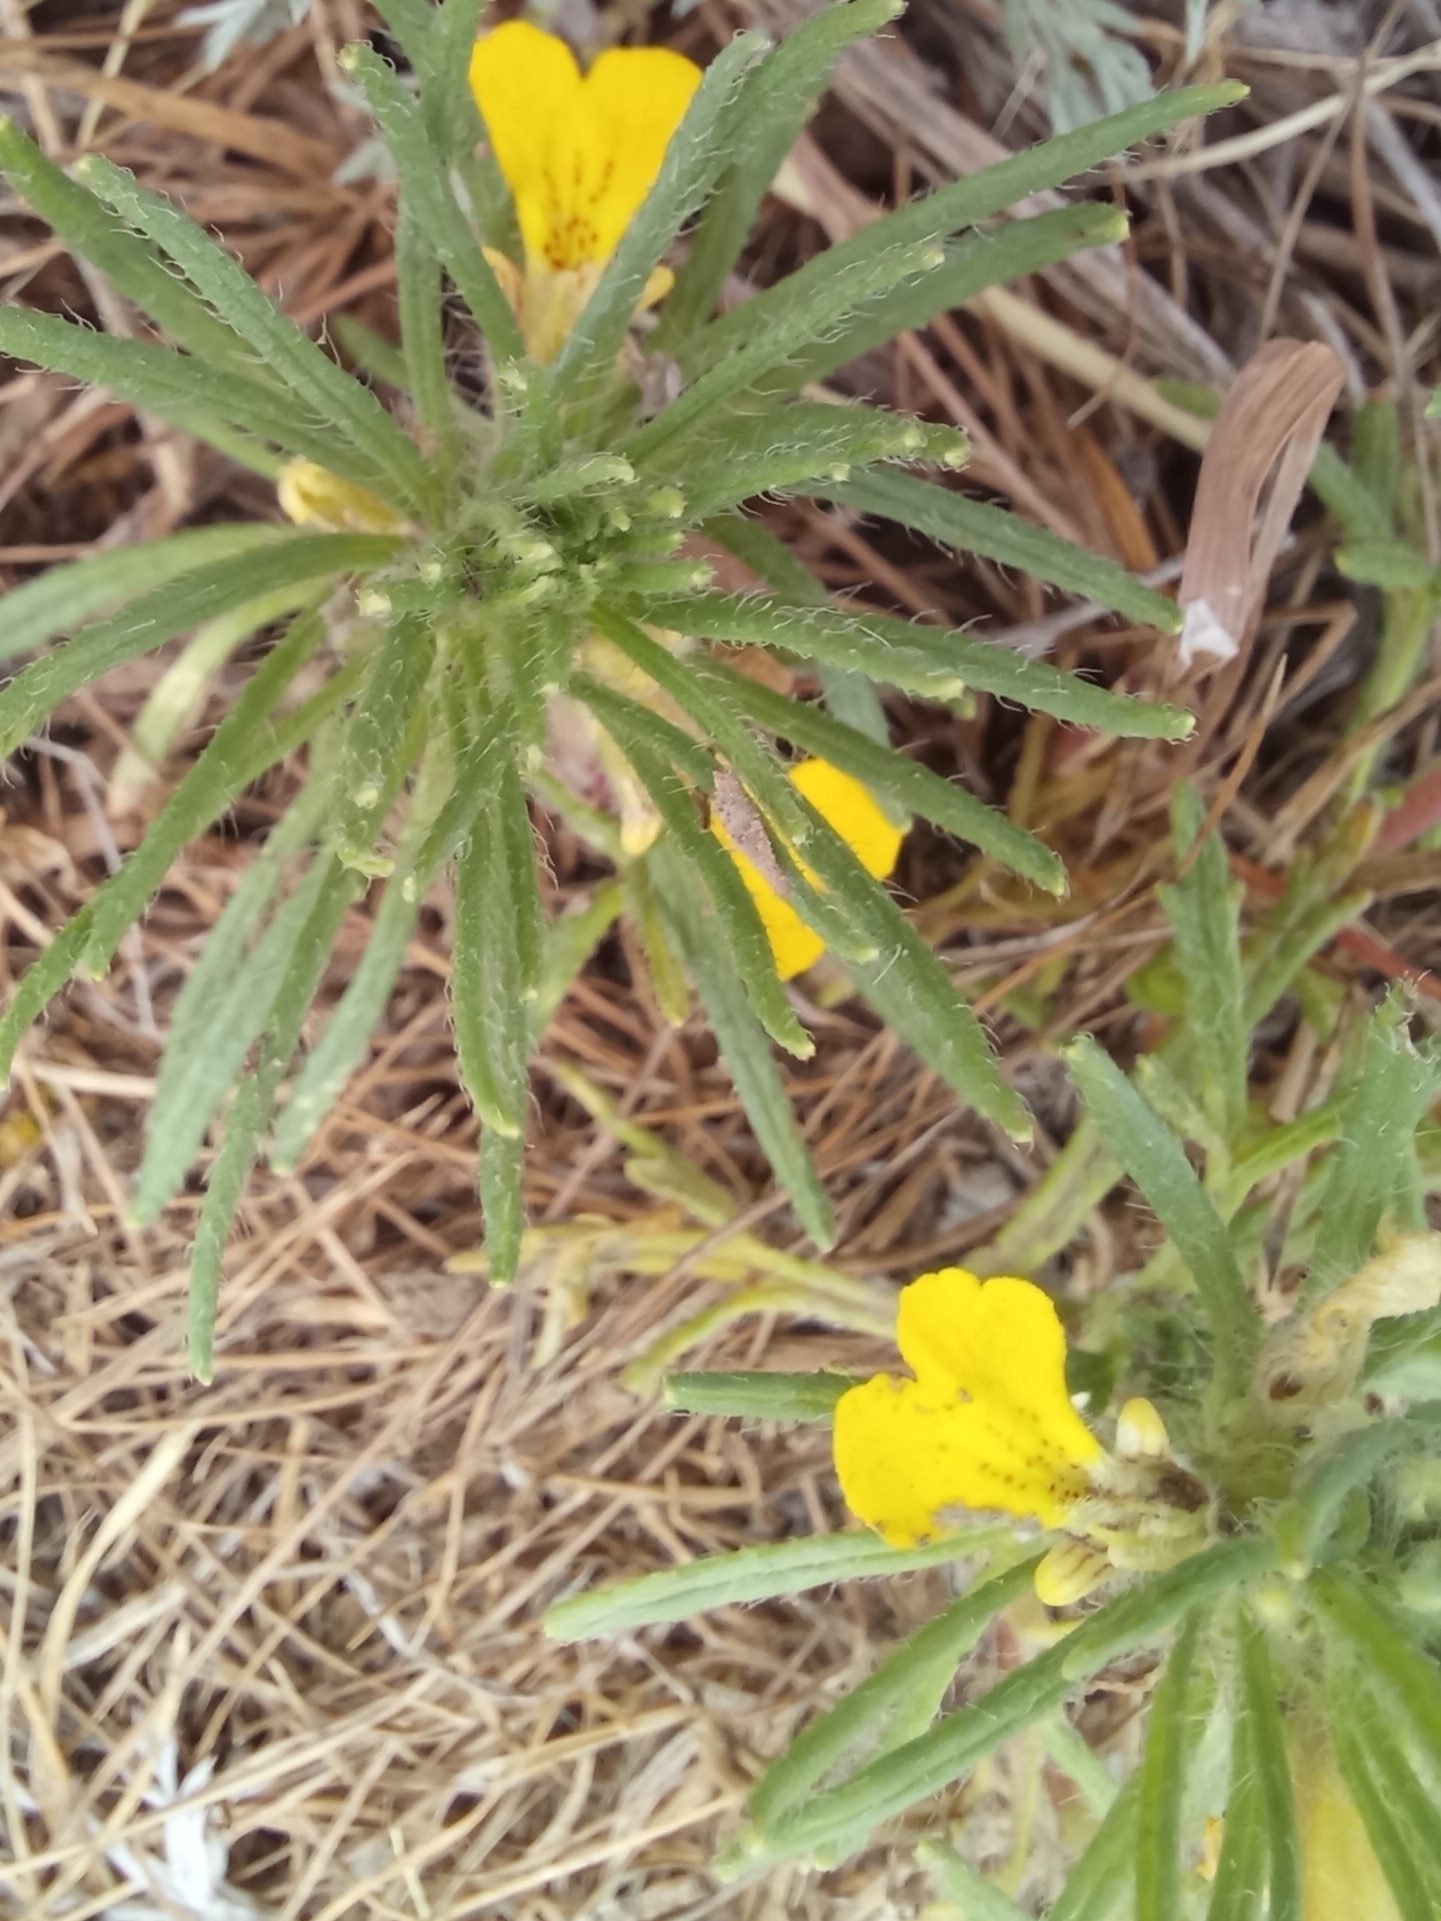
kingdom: Plantae
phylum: Tracheophyta
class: Magnoliopsida
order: Lamiales
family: Lamiaceae
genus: Ajuga
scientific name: Ajuga chamaepitys
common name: Ground-pine
